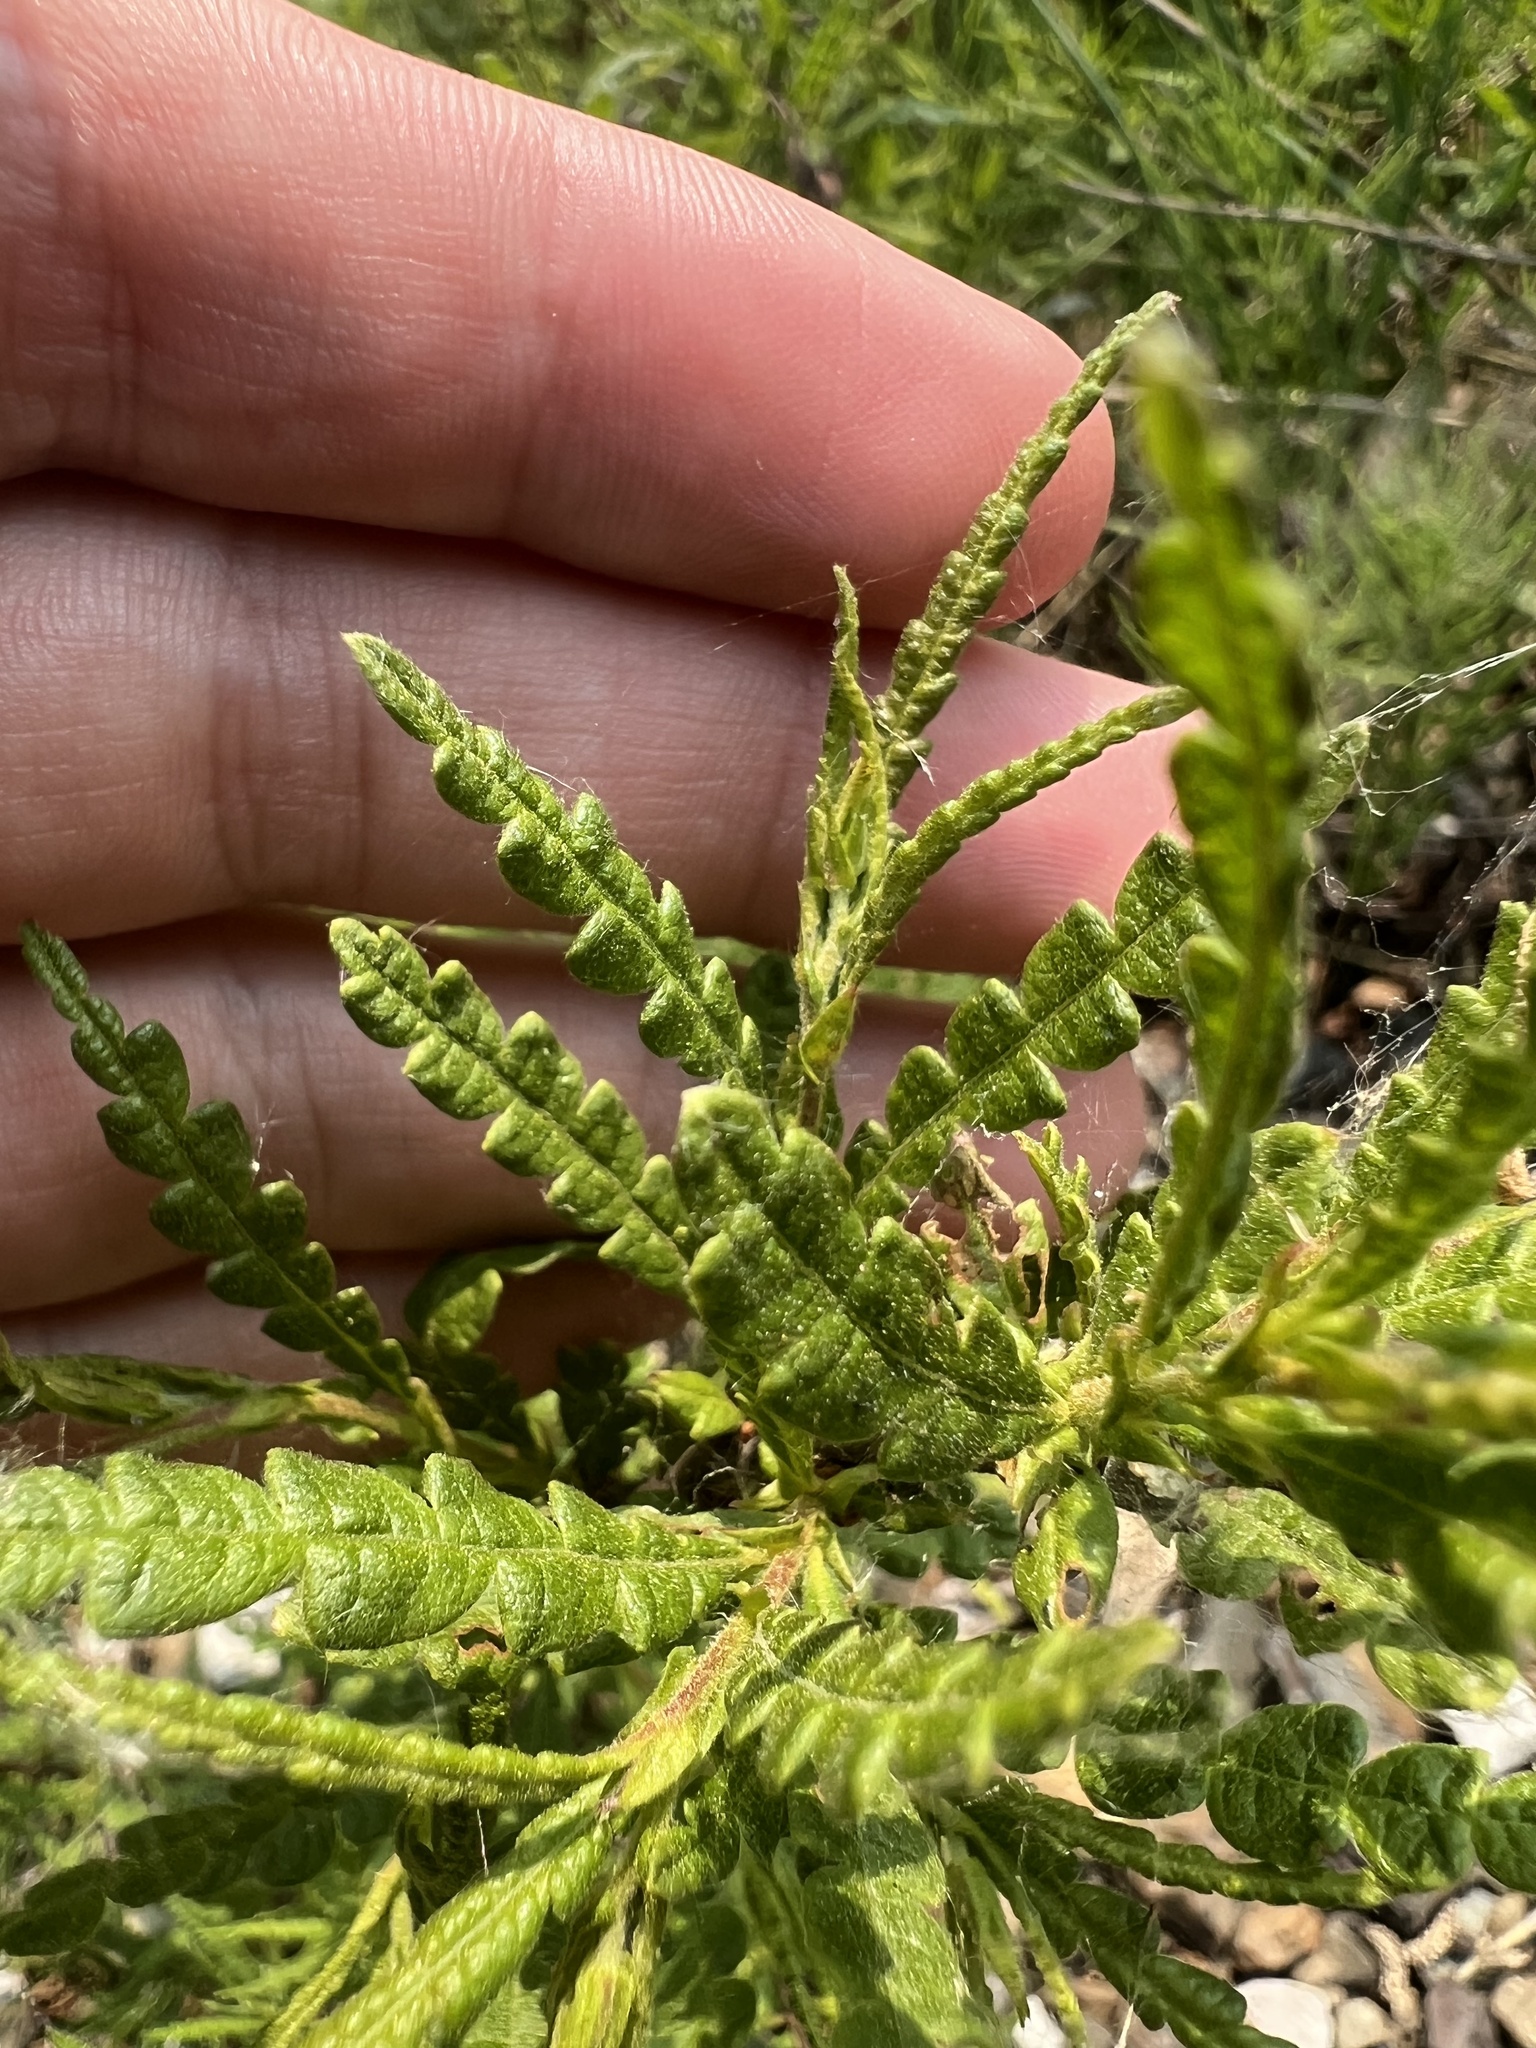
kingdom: Plantae
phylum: Tracheophyta
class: Magnoliopsida
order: Fagales
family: Myricaceae
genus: Comptonia
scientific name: Comptonia peregrina
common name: Sweet-fern
